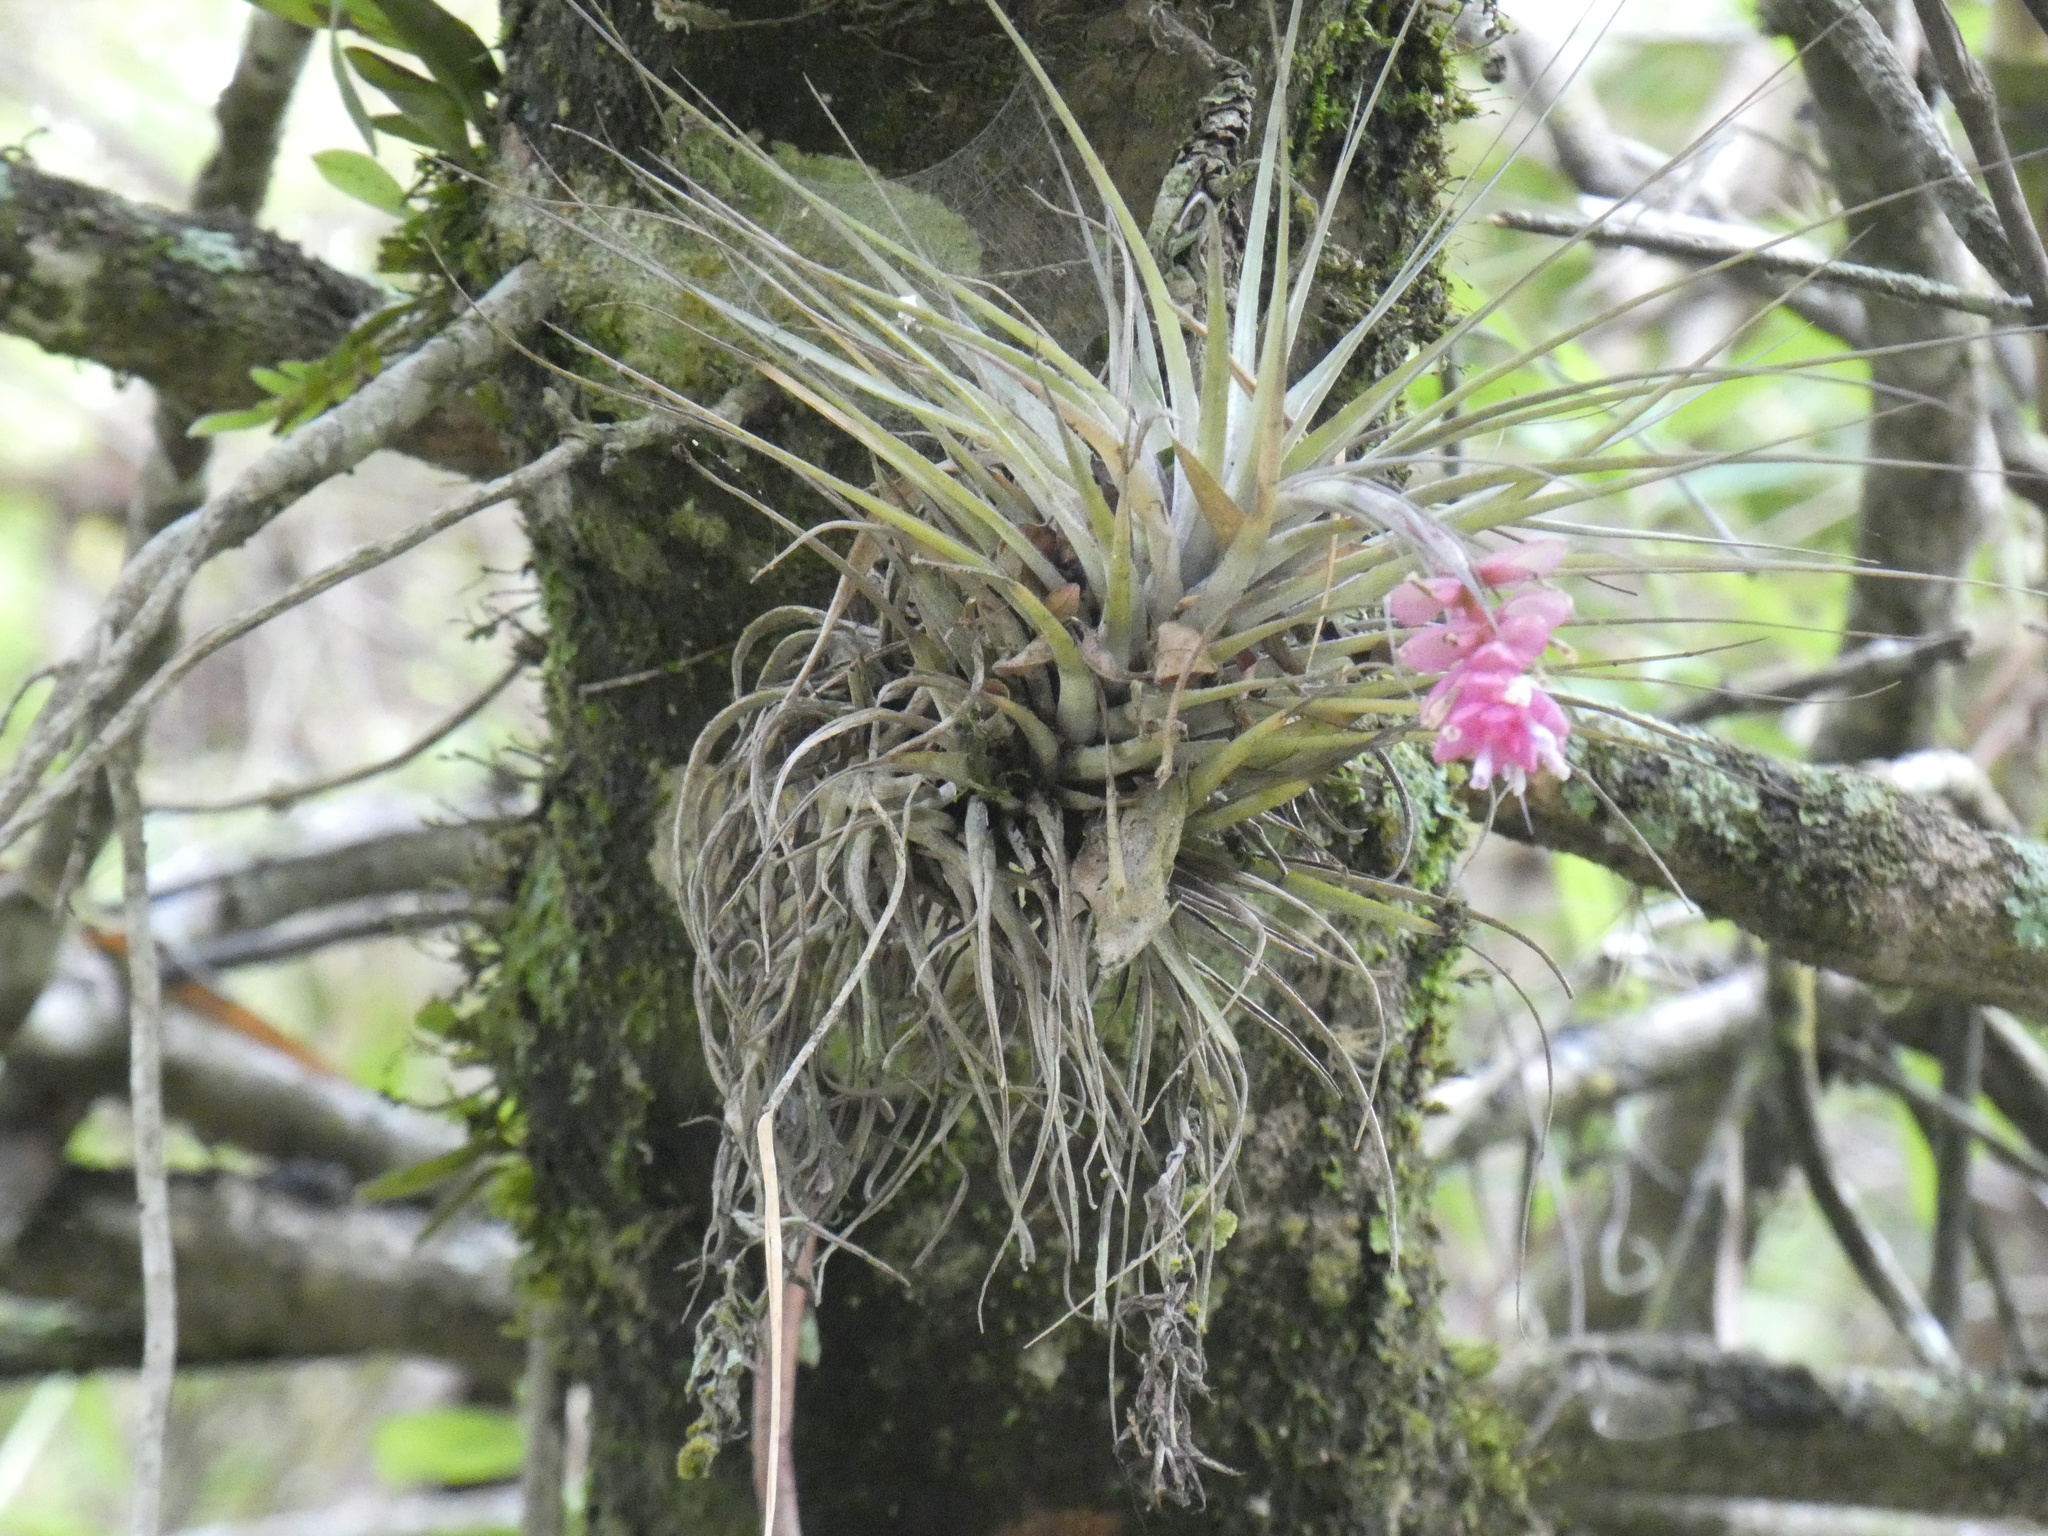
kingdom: Plantae
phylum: Tracheophyta
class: Liliopsida
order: Poales
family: Bromeliaceae
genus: Tillandsia
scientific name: Tillandsia stricta
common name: Airplant
